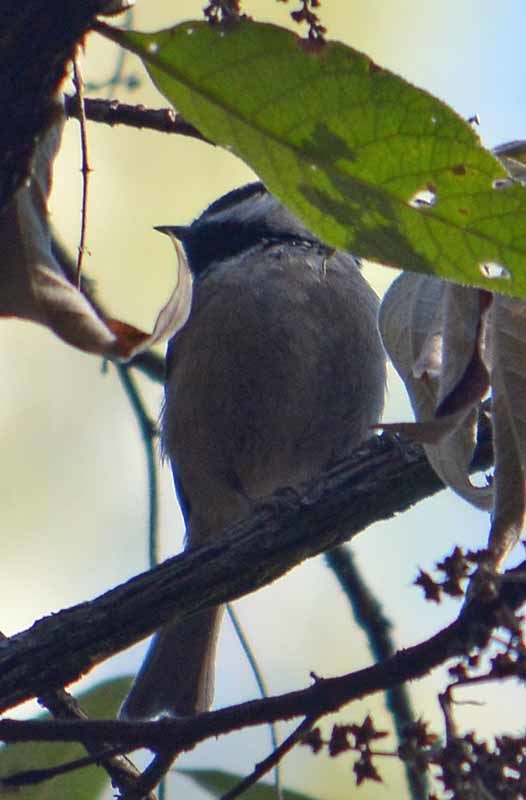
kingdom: Animalia
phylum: Chordata
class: Aves
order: Passeriformes
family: Paridae
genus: Poecile
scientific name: Poecile sclateri
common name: Mexican chickadee
